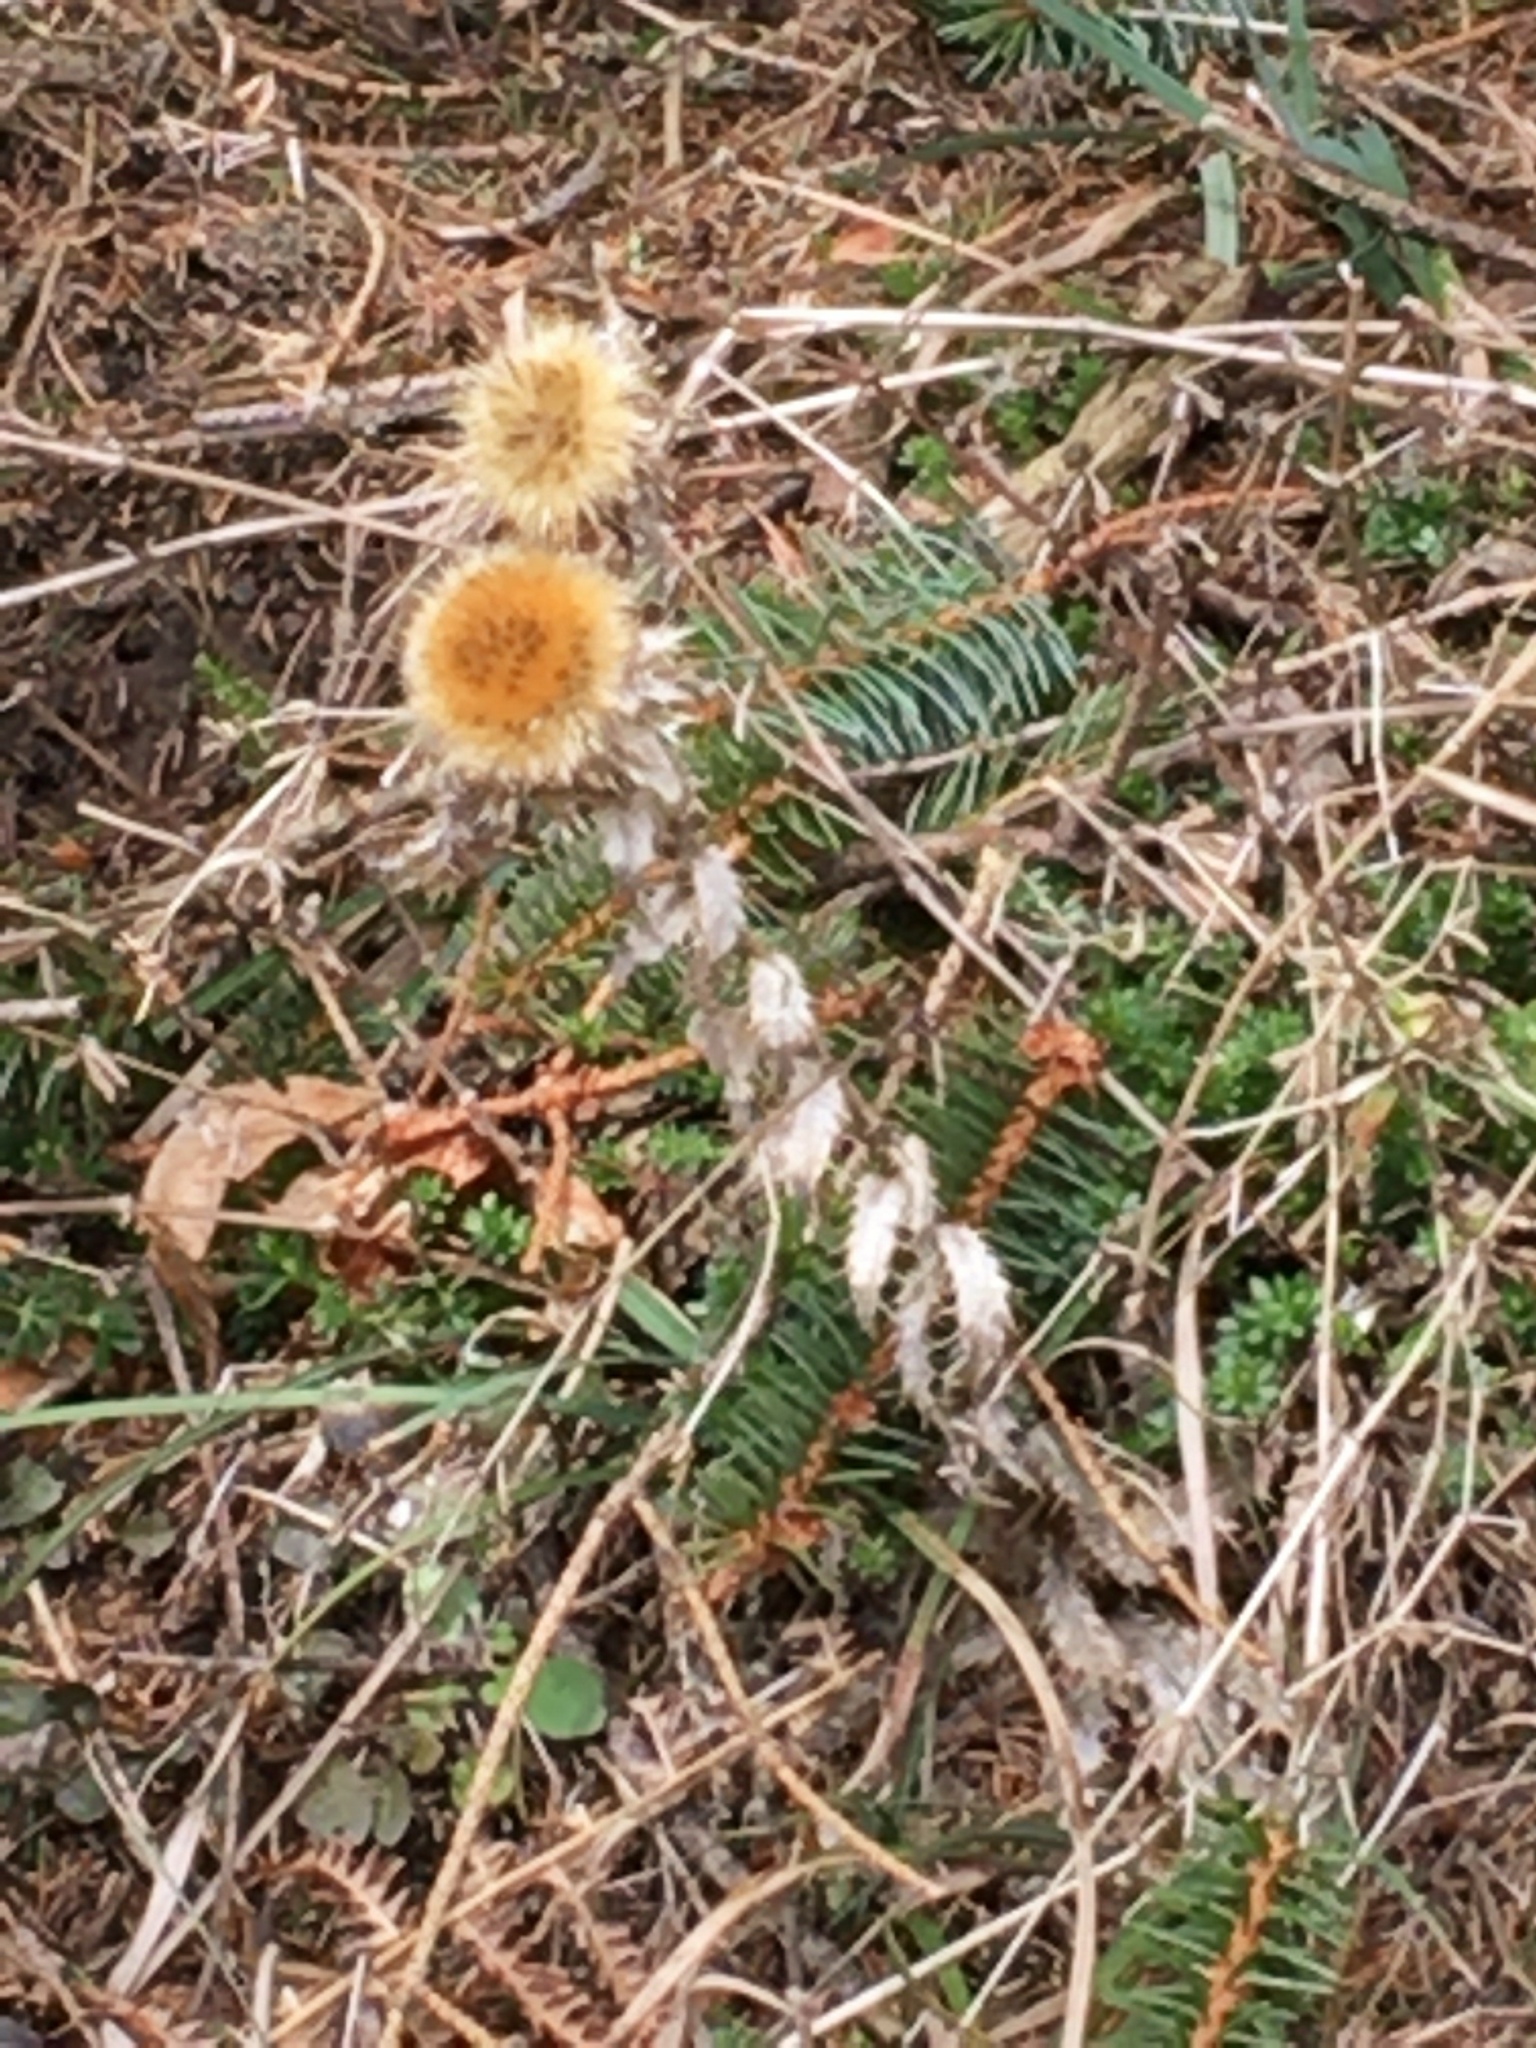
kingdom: Plantae
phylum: Tracheophyta
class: Magnoliopsida
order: Asterales
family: Asteraceae
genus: Carlina
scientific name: Carlina vulgaris
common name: Carline thistle
